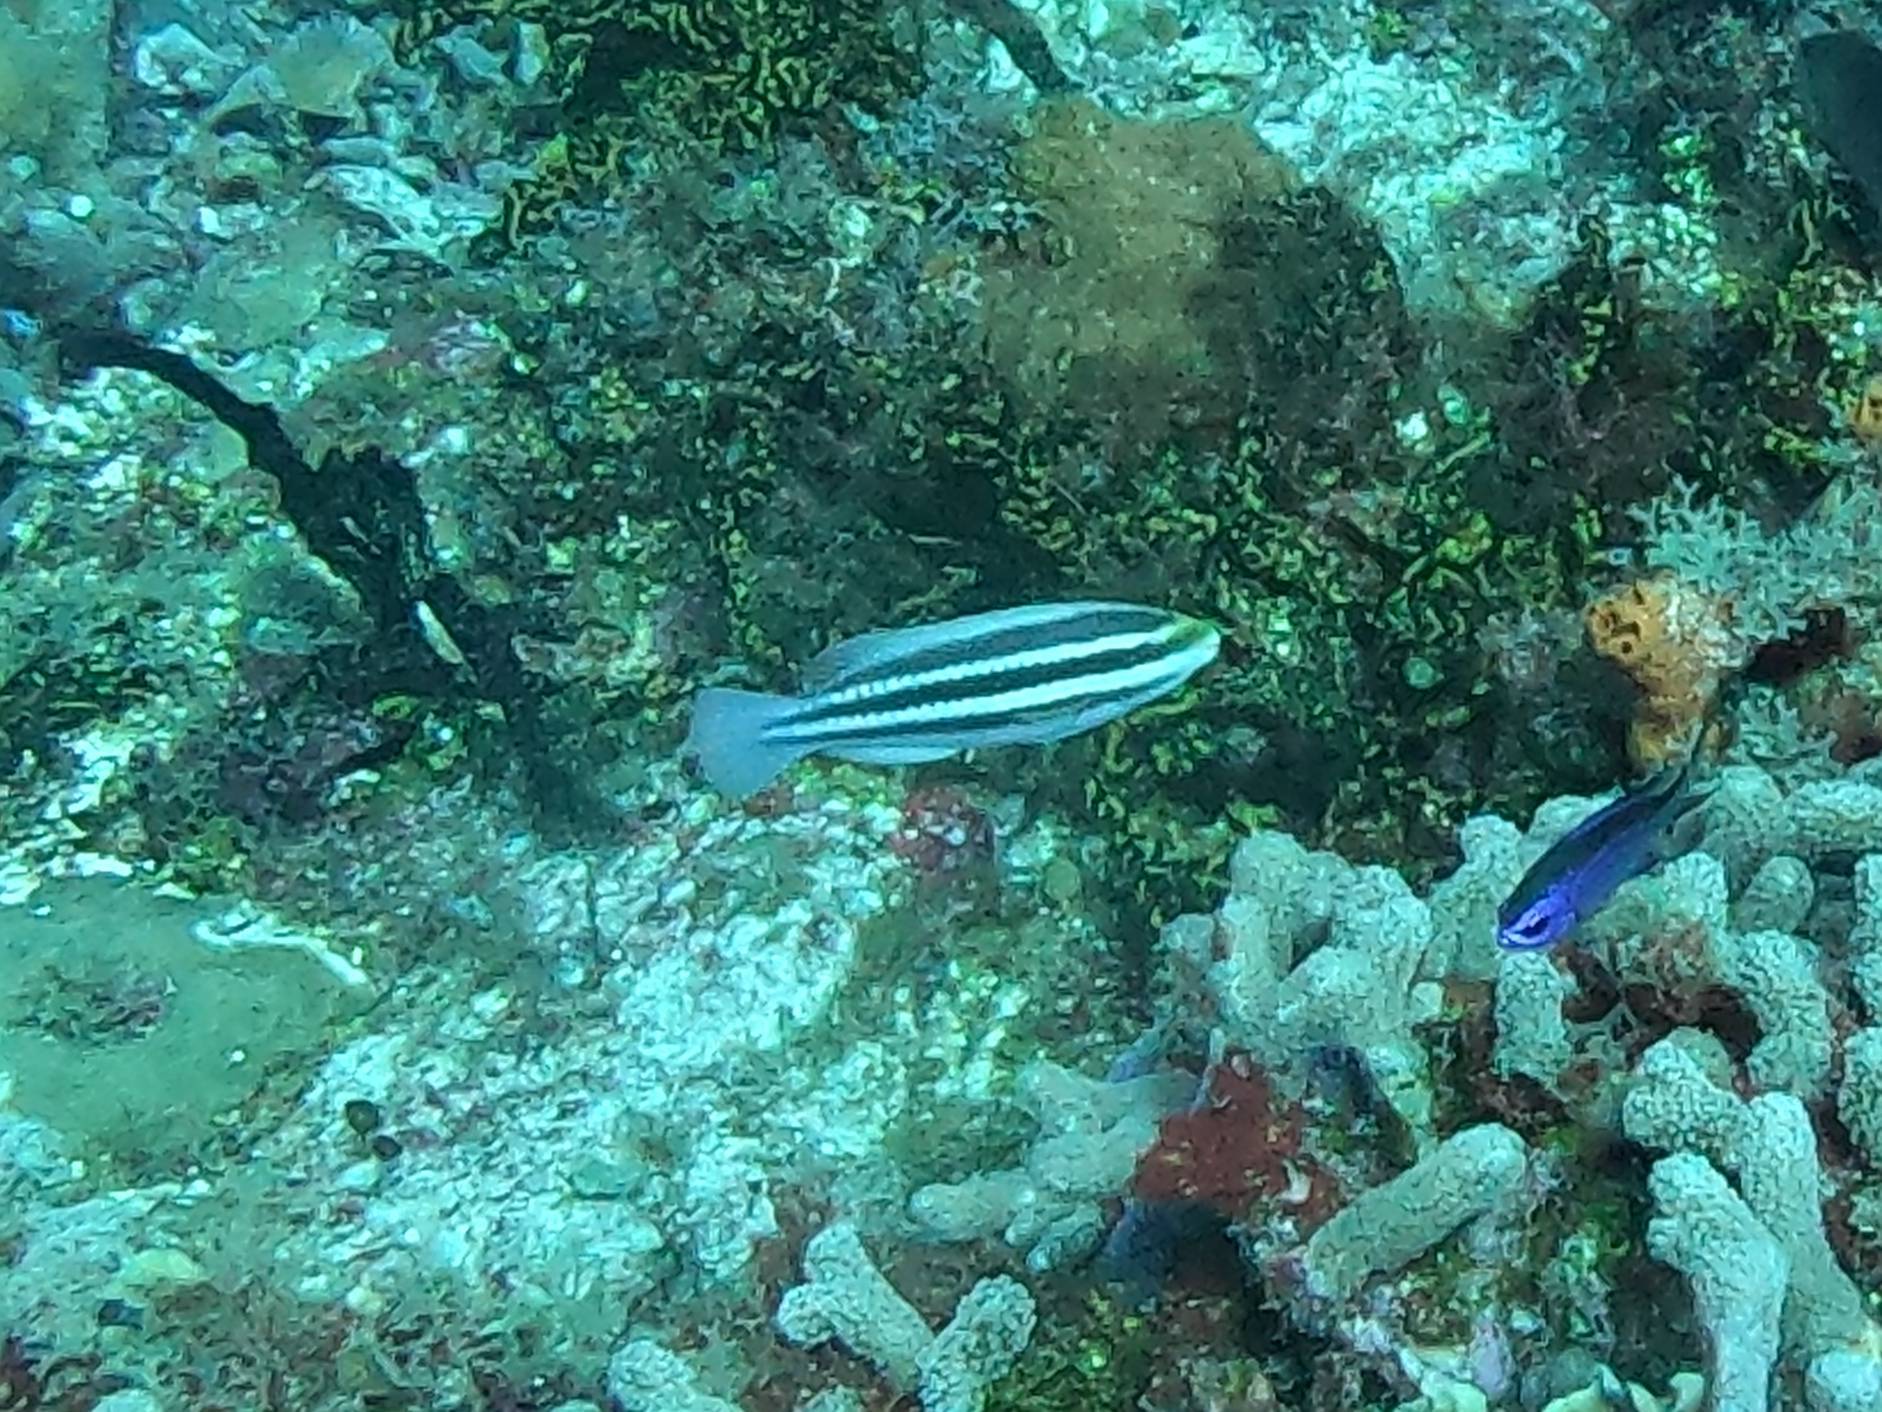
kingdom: Animalia
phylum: Chordata
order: Perciformes
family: Scaridae
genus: Scarus
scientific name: Scarus iseri
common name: Striped parrotfish
